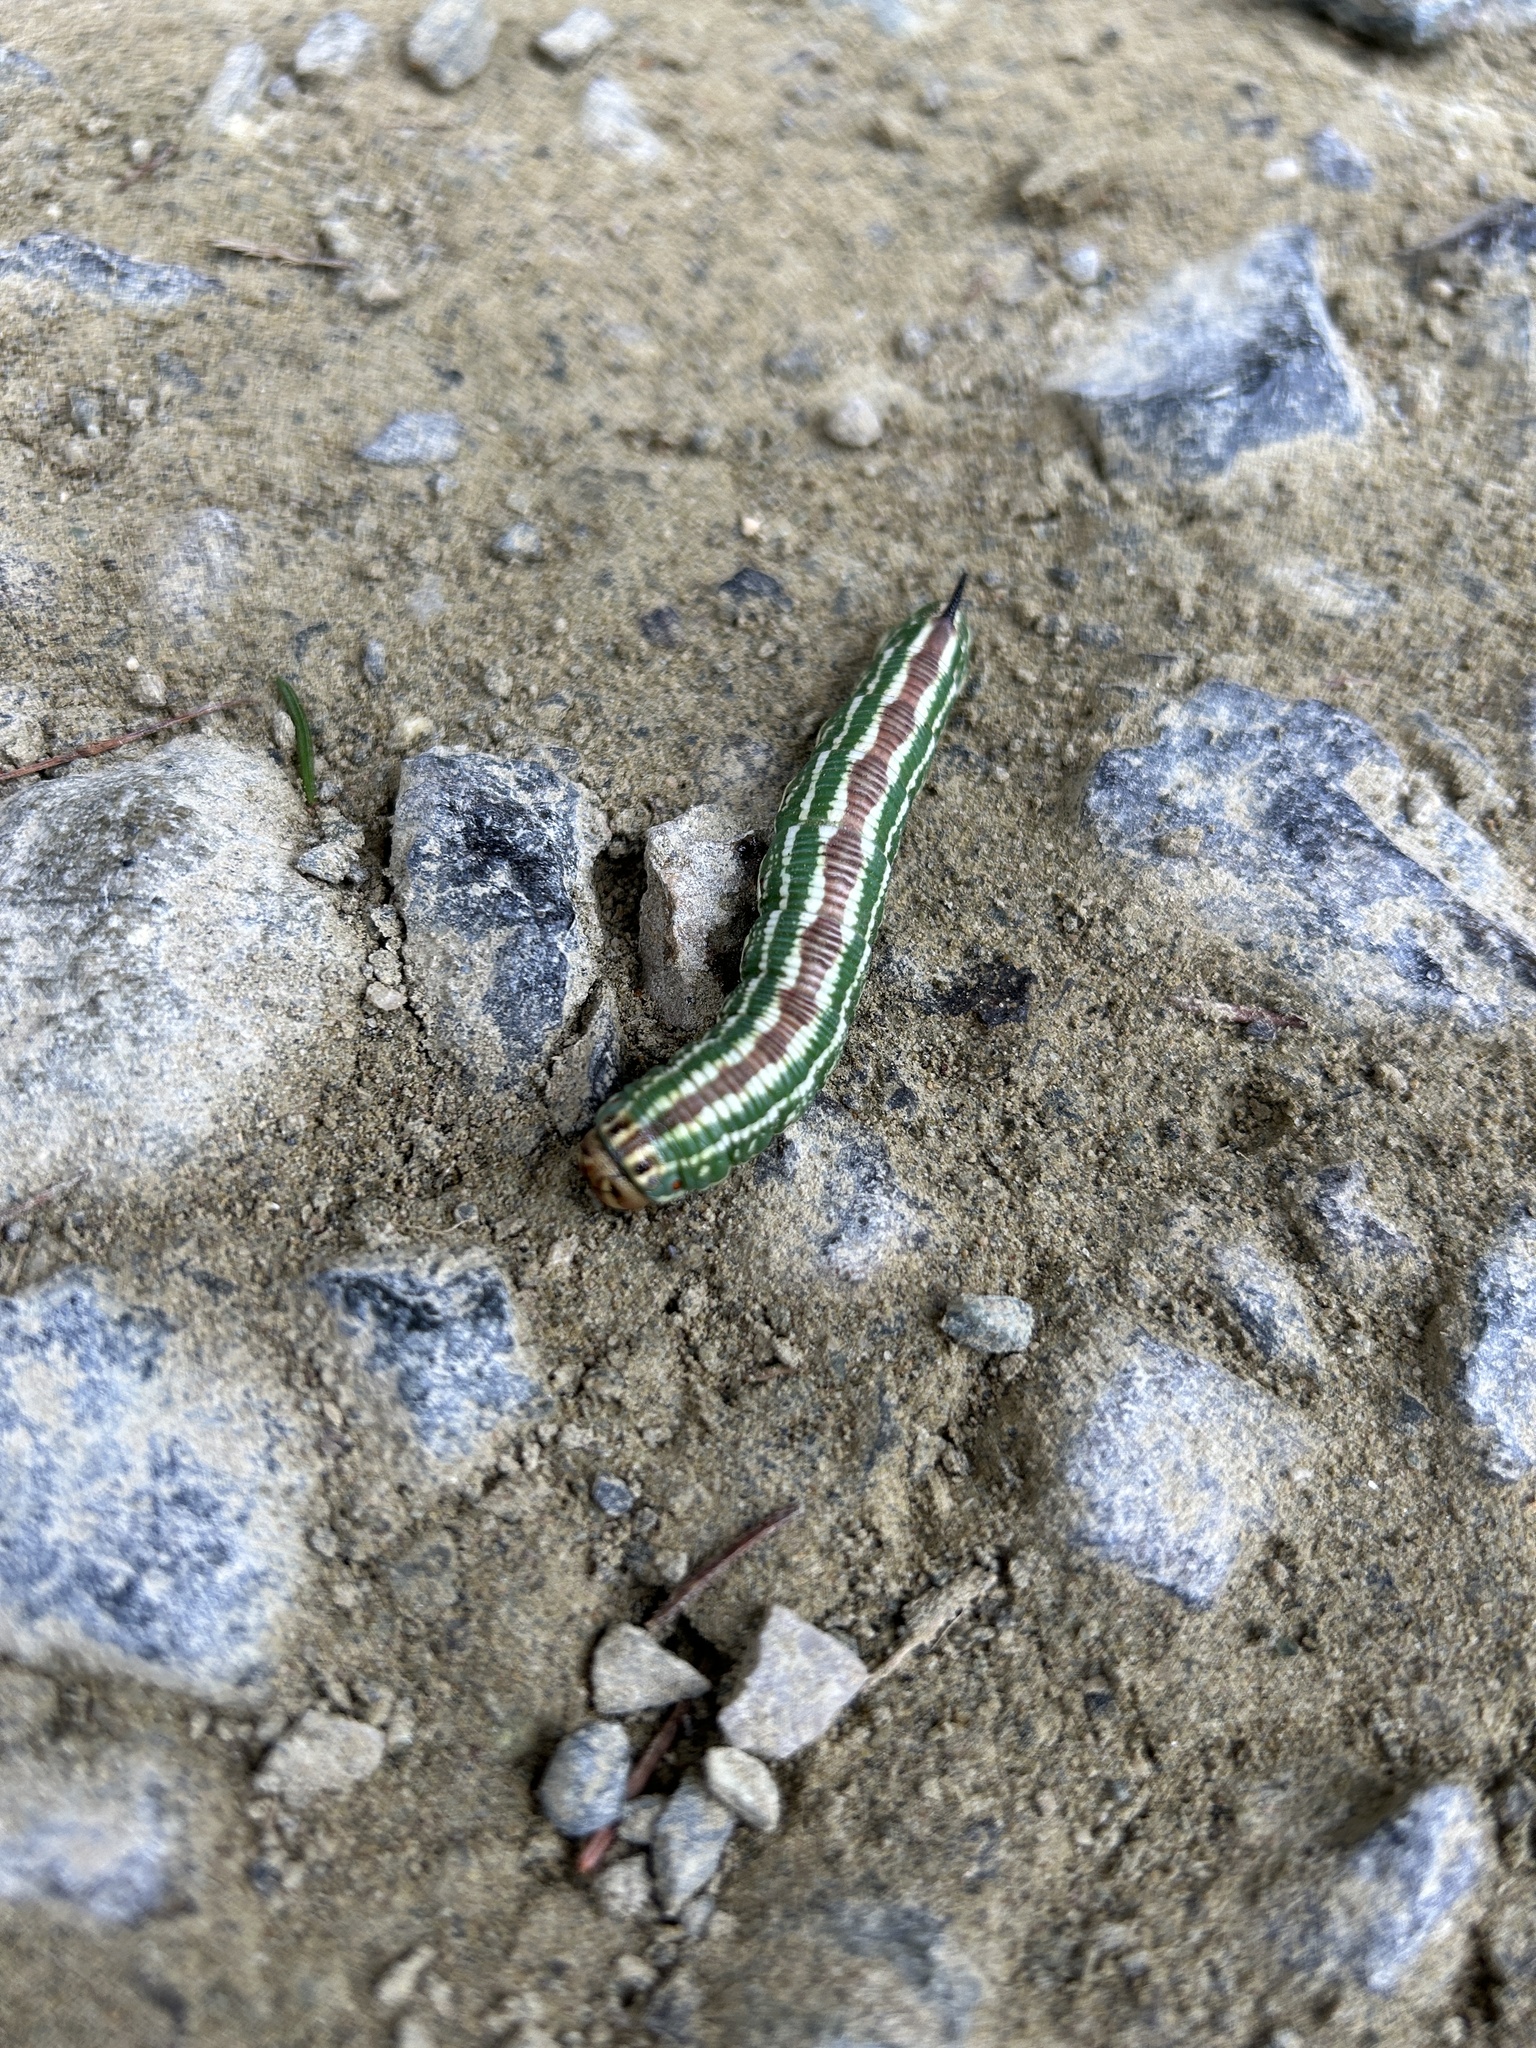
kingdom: Animalia
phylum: Arthropoda
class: Insecta
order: Lepidoptera
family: Sphingidae
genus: Sphinx
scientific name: Sphinx pinastri
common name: Pine hawk-moth
